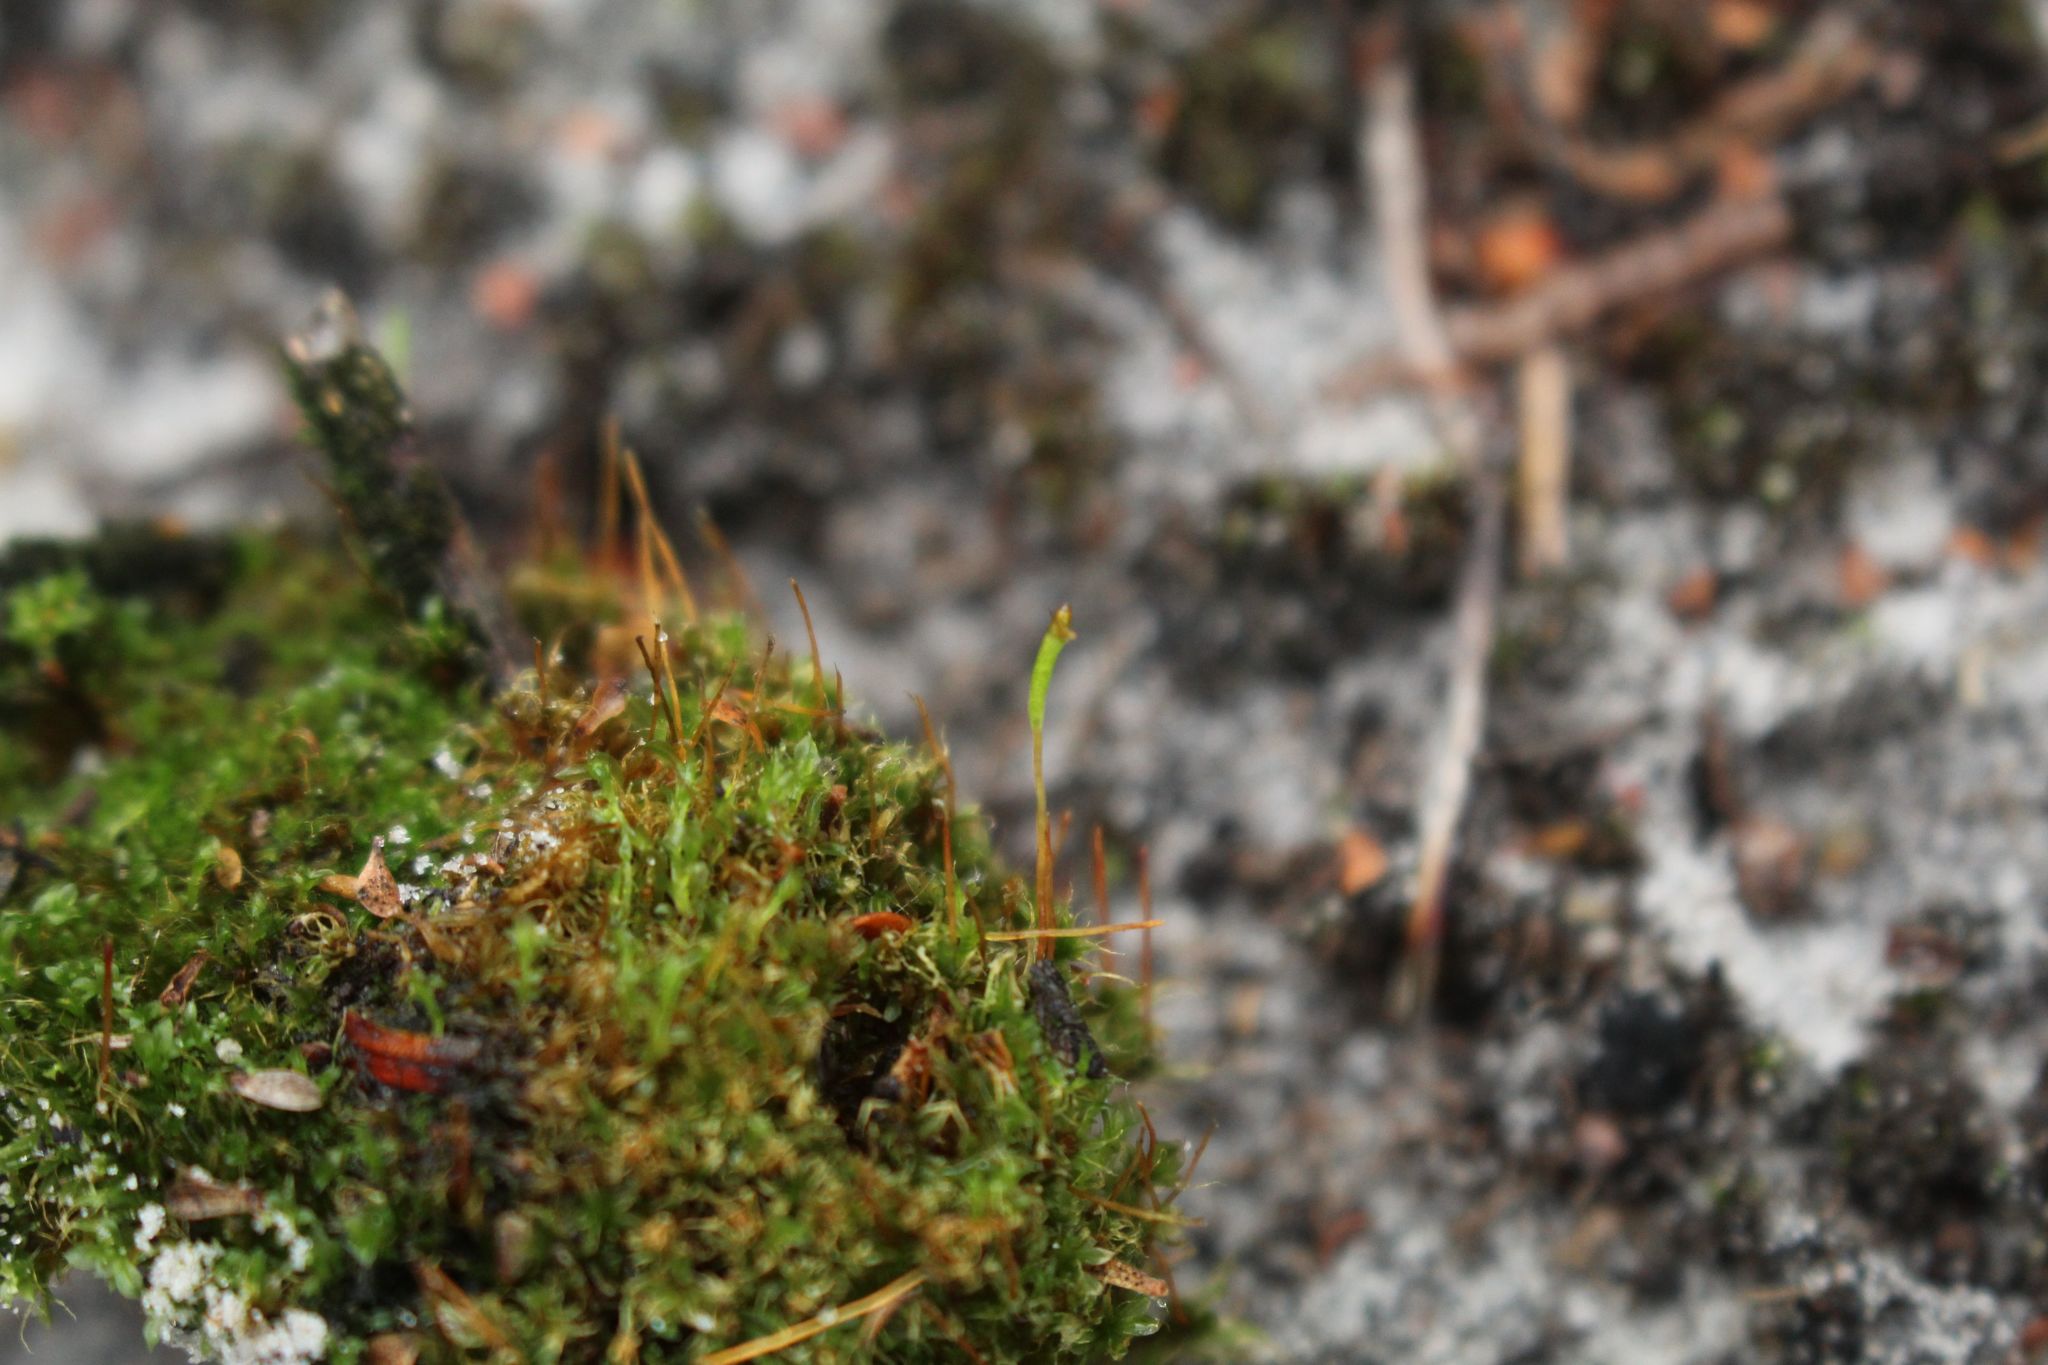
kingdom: Plantae
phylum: Bryophyta
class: Bryopsida
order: Splachnales
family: Splachnaceae
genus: Tayloria
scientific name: Tayloria octoblephara
